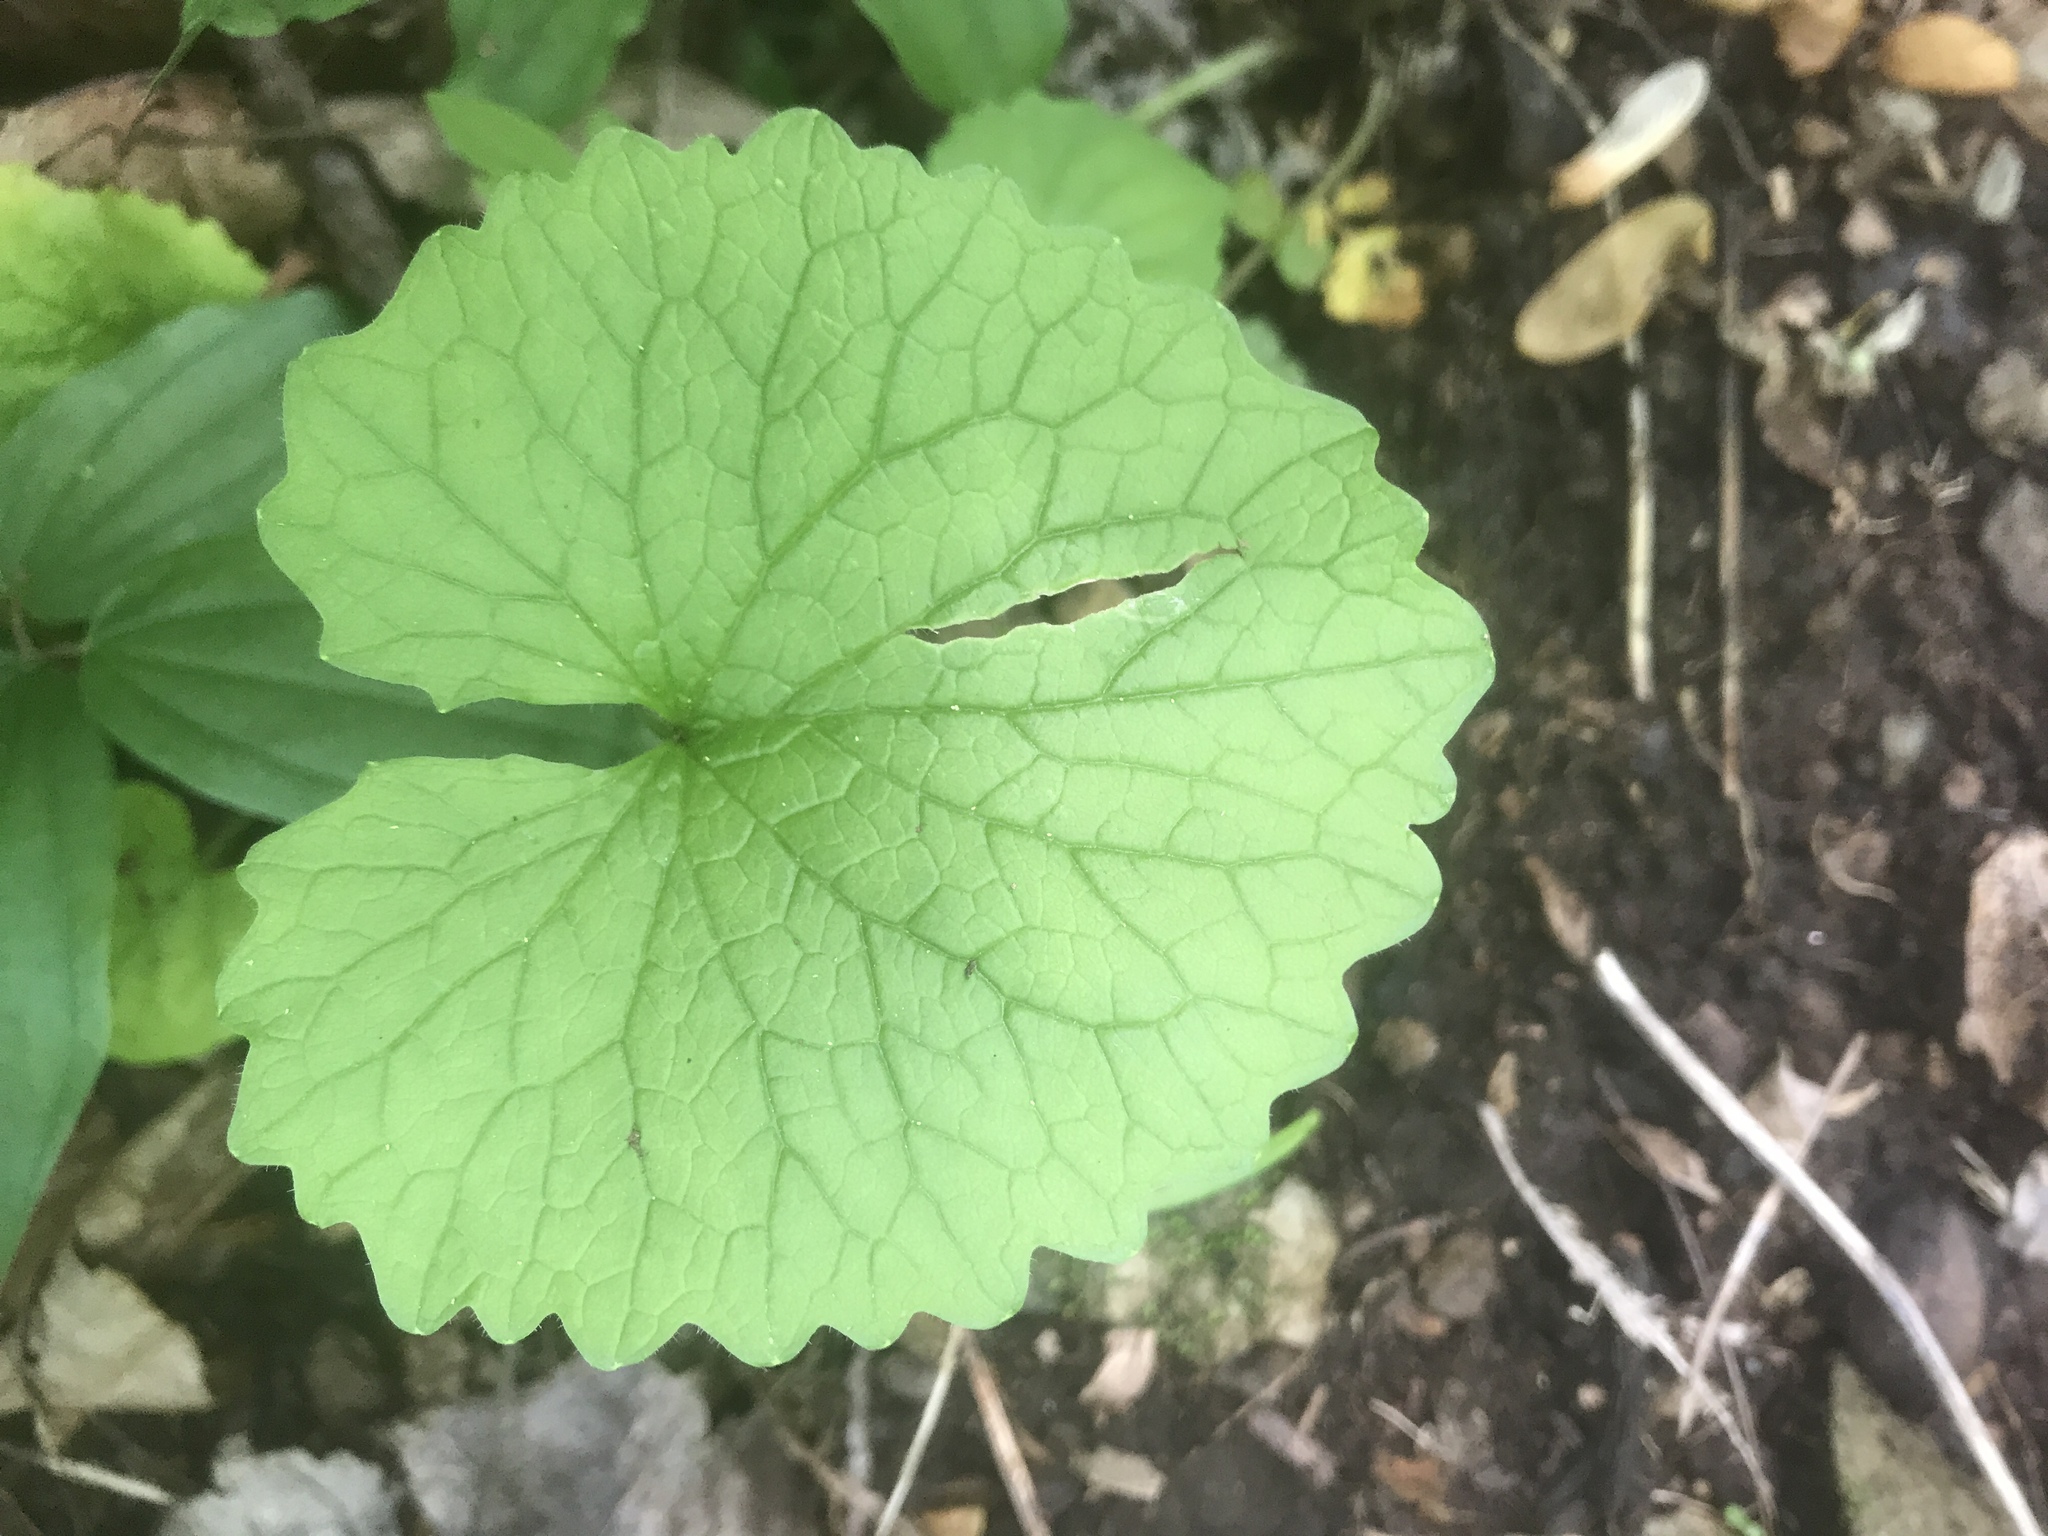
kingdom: Plantae
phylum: Tracheophyta
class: Magnoliopsida
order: Brassicales
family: Brassicaceae
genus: Alliaria
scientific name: Alliaria petiolata
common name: Garlic mustard
